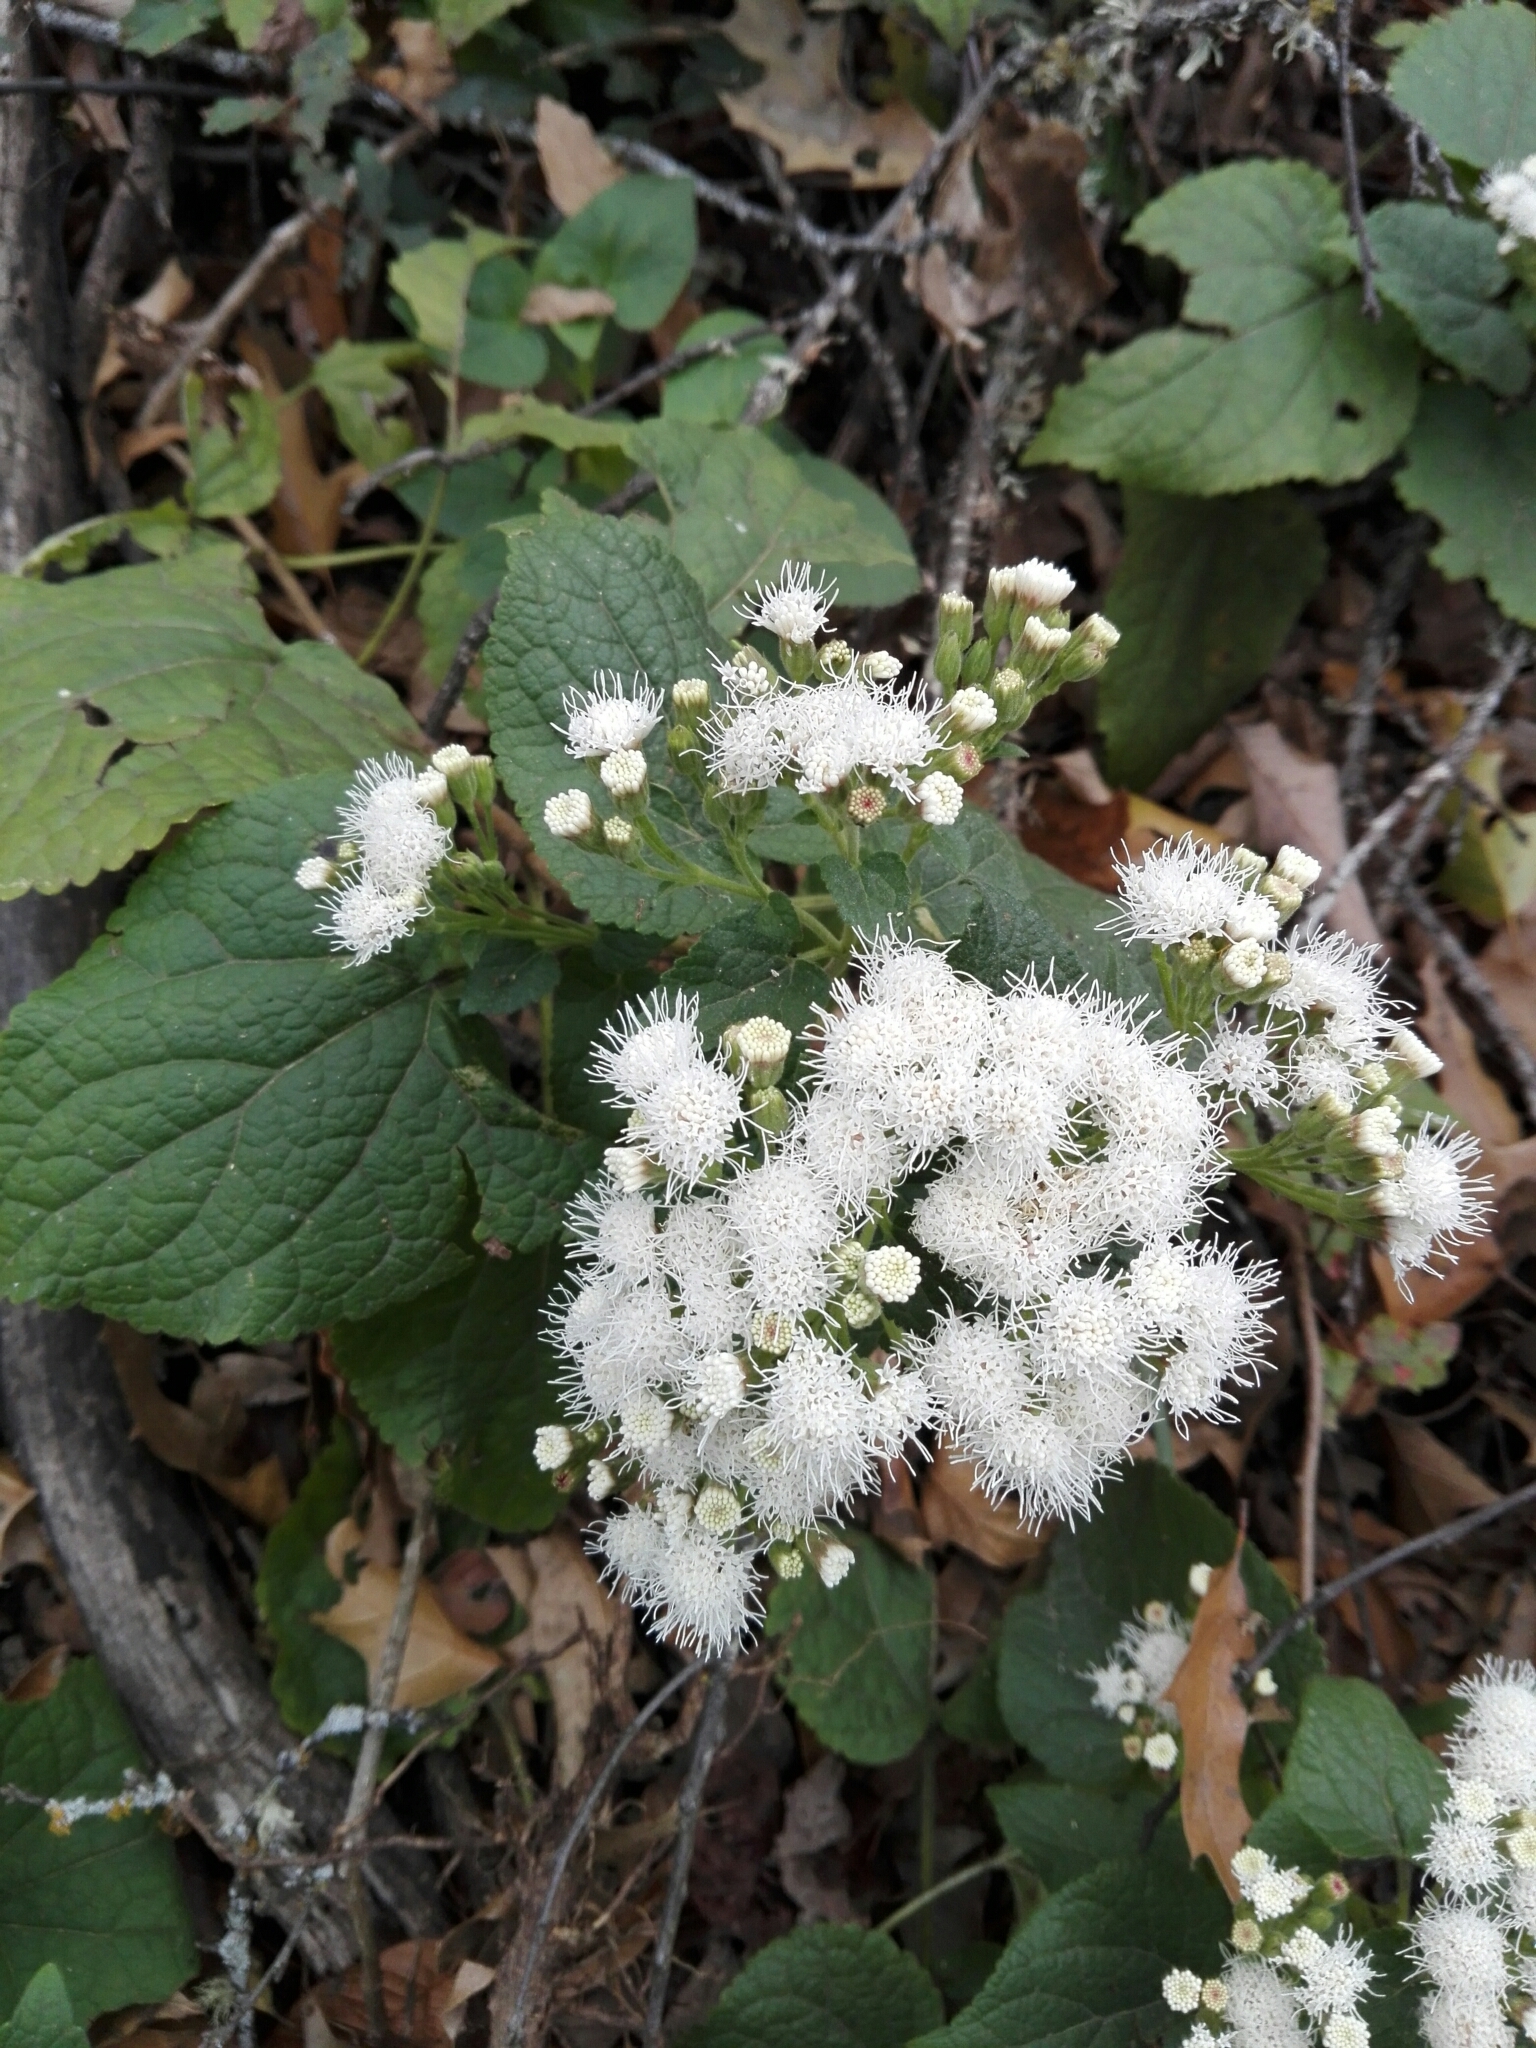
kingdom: Plantae
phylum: Tracheophyta
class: Magnoliopsida
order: Asterales
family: Asteraceae
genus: Ageratina
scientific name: Ageratina petiolaris
